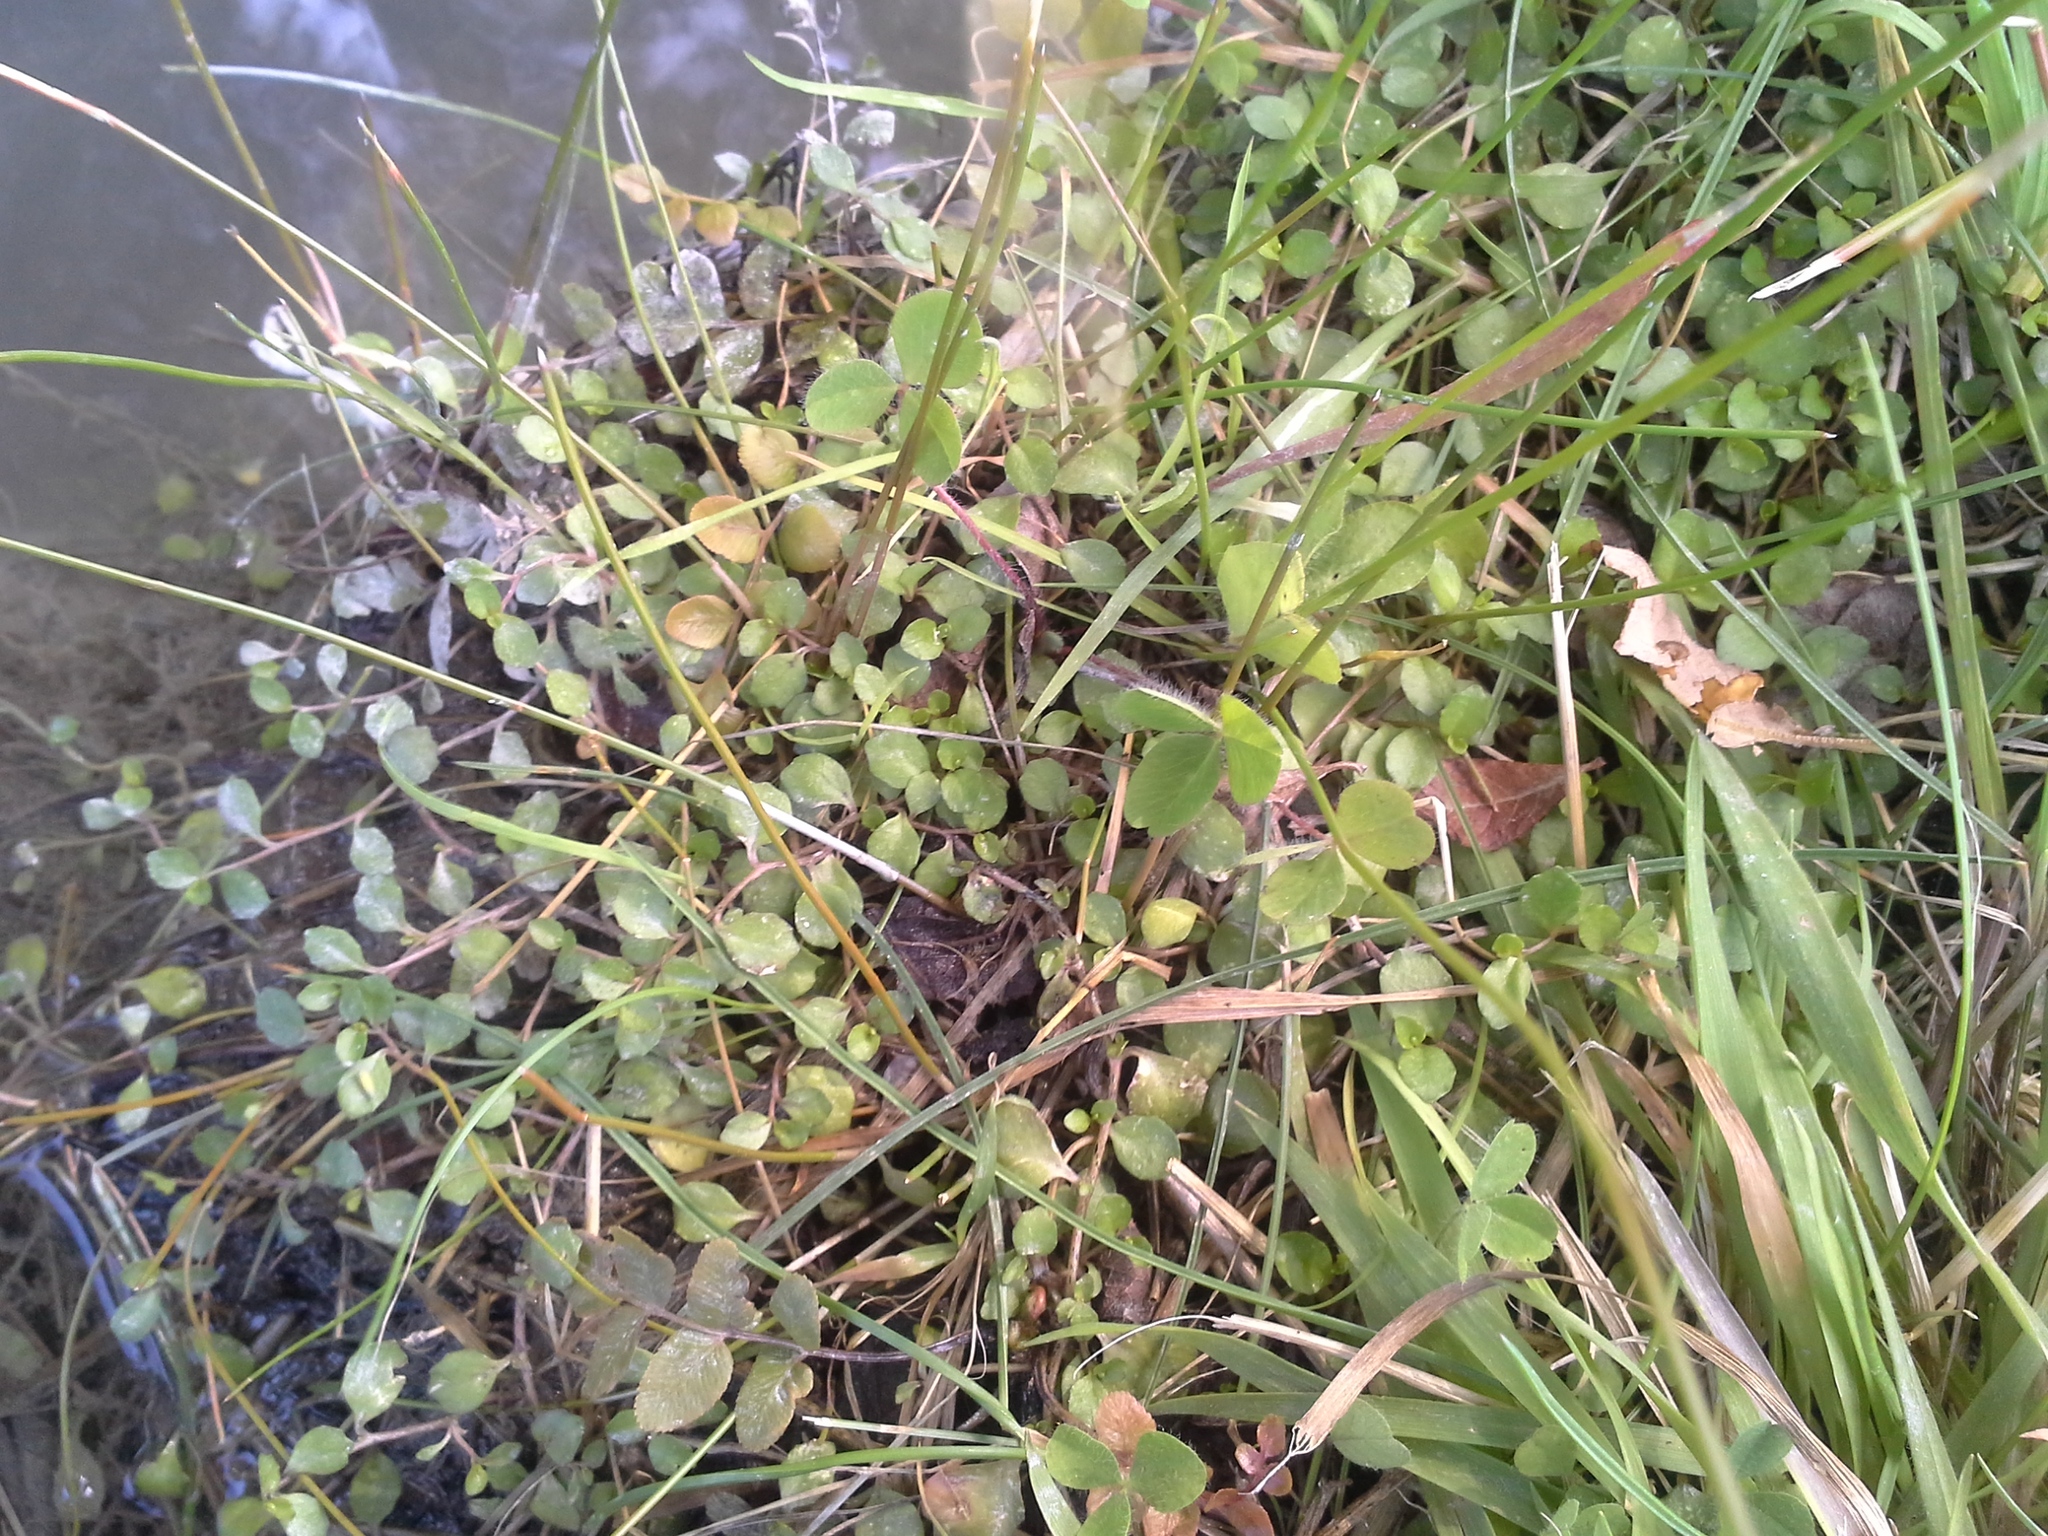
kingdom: Plantae
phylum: Tracheophyta
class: Magnoliopsida
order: Asterales
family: Campanulaceae
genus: Lobelia
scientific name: Lobelia angulata
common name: Lawn lobelia
